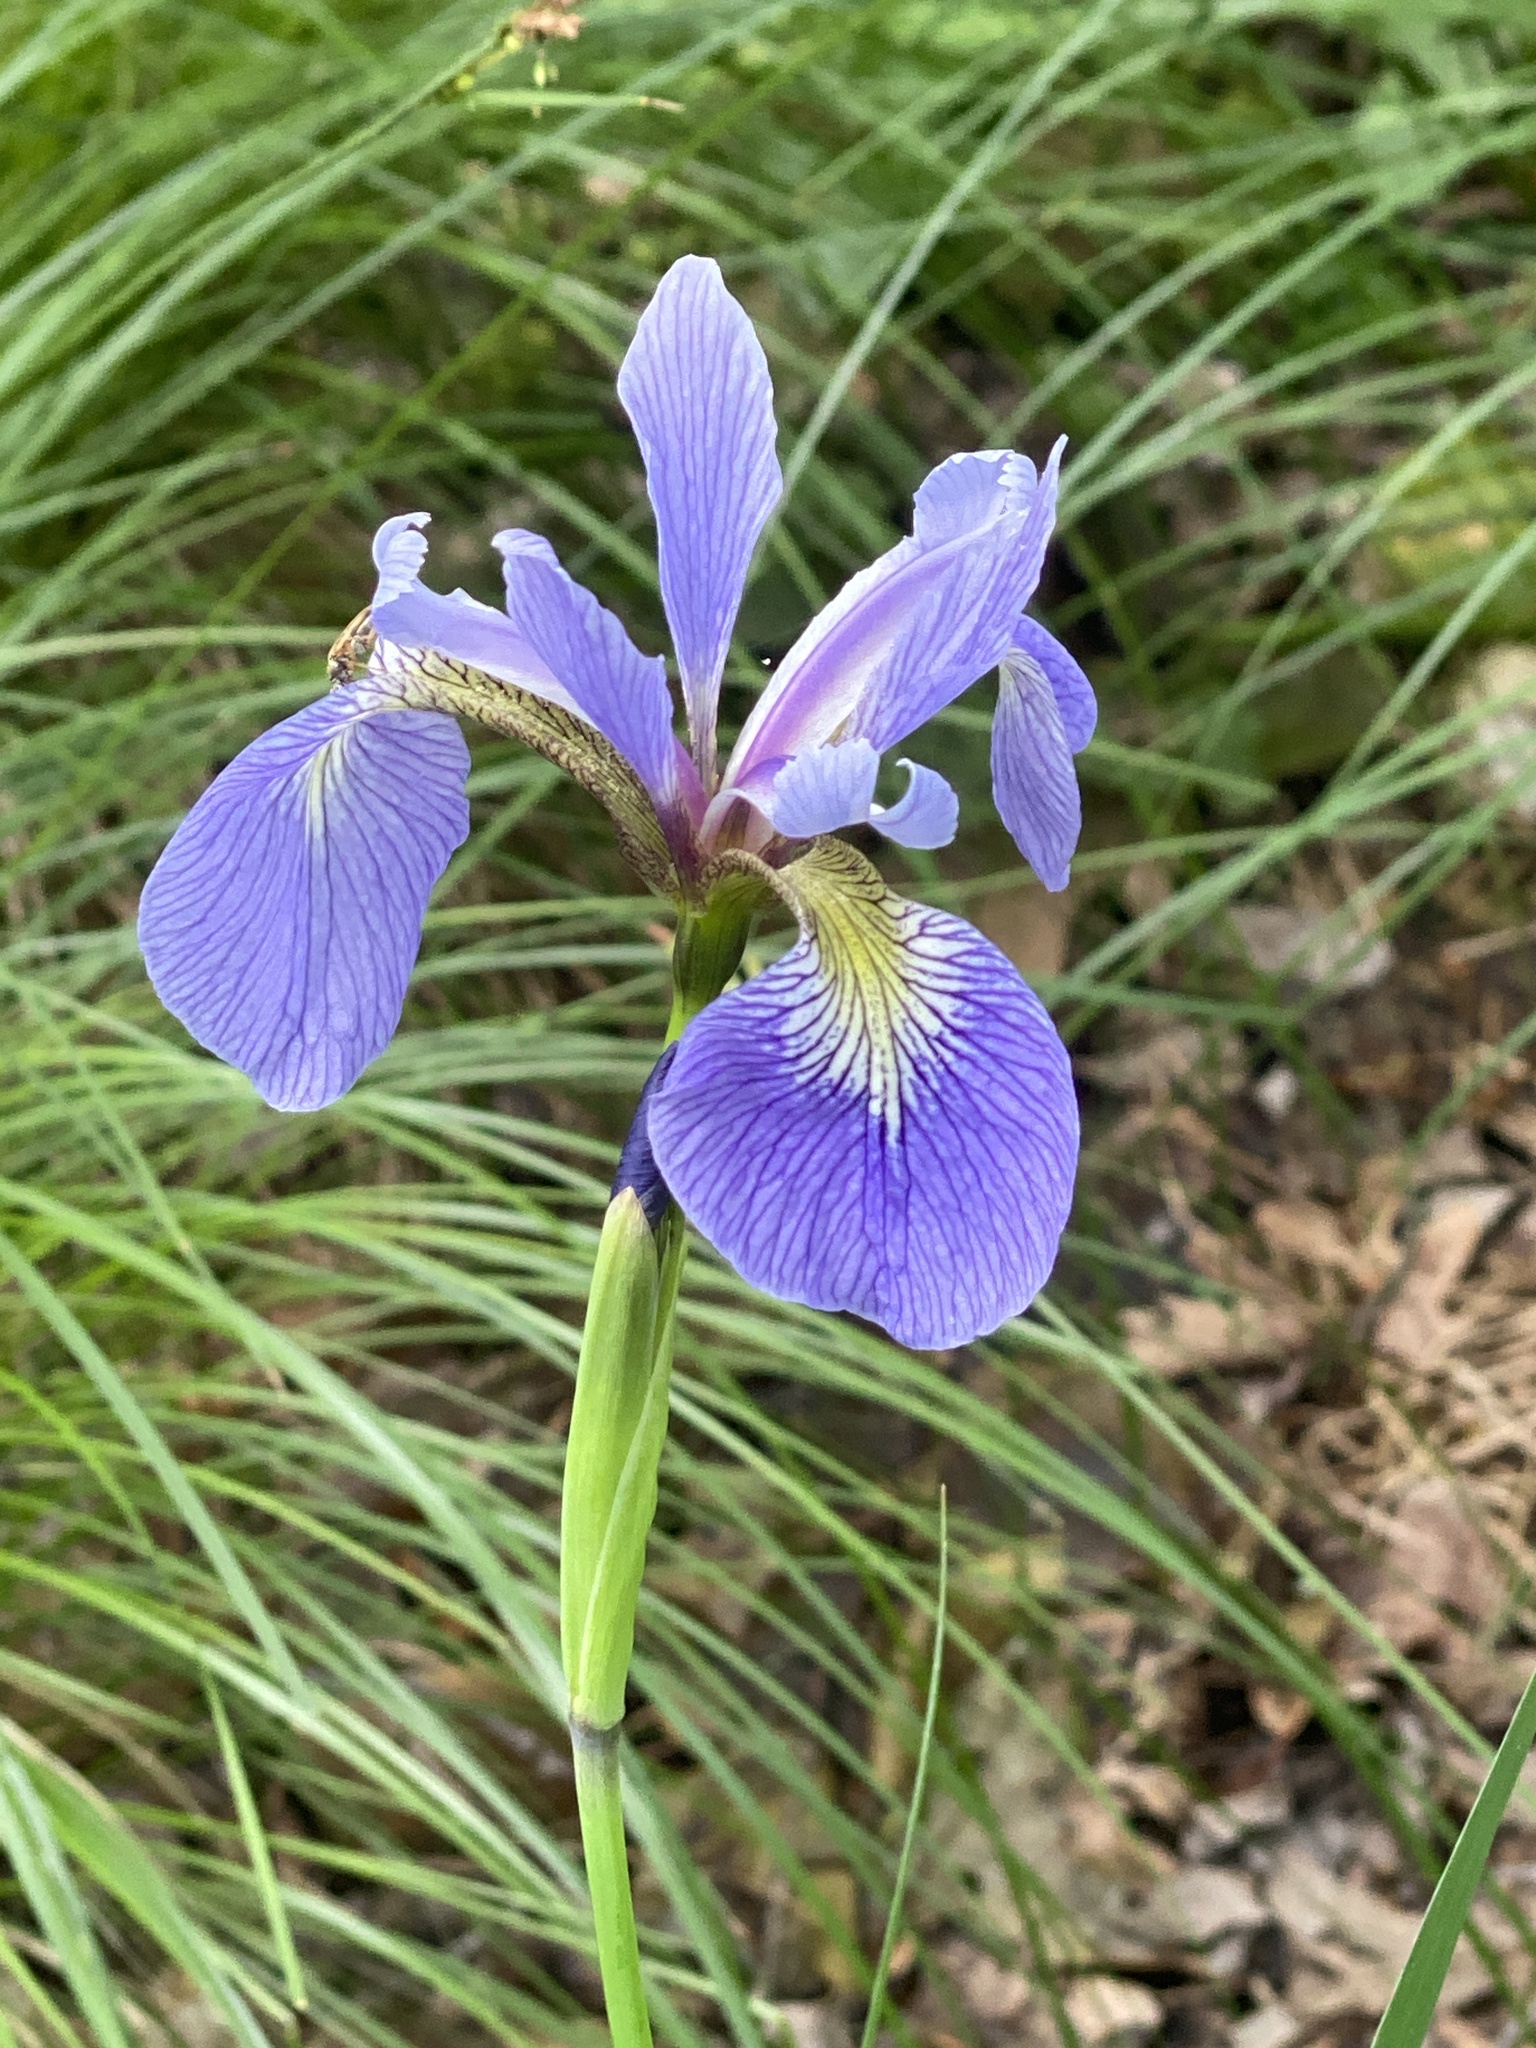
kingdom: Plantae
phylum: Tracheophyta
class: Liliopsida
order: Asparagales
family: Iridaceae
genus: Iris
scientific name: Iris versicolor
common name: Purple iris
